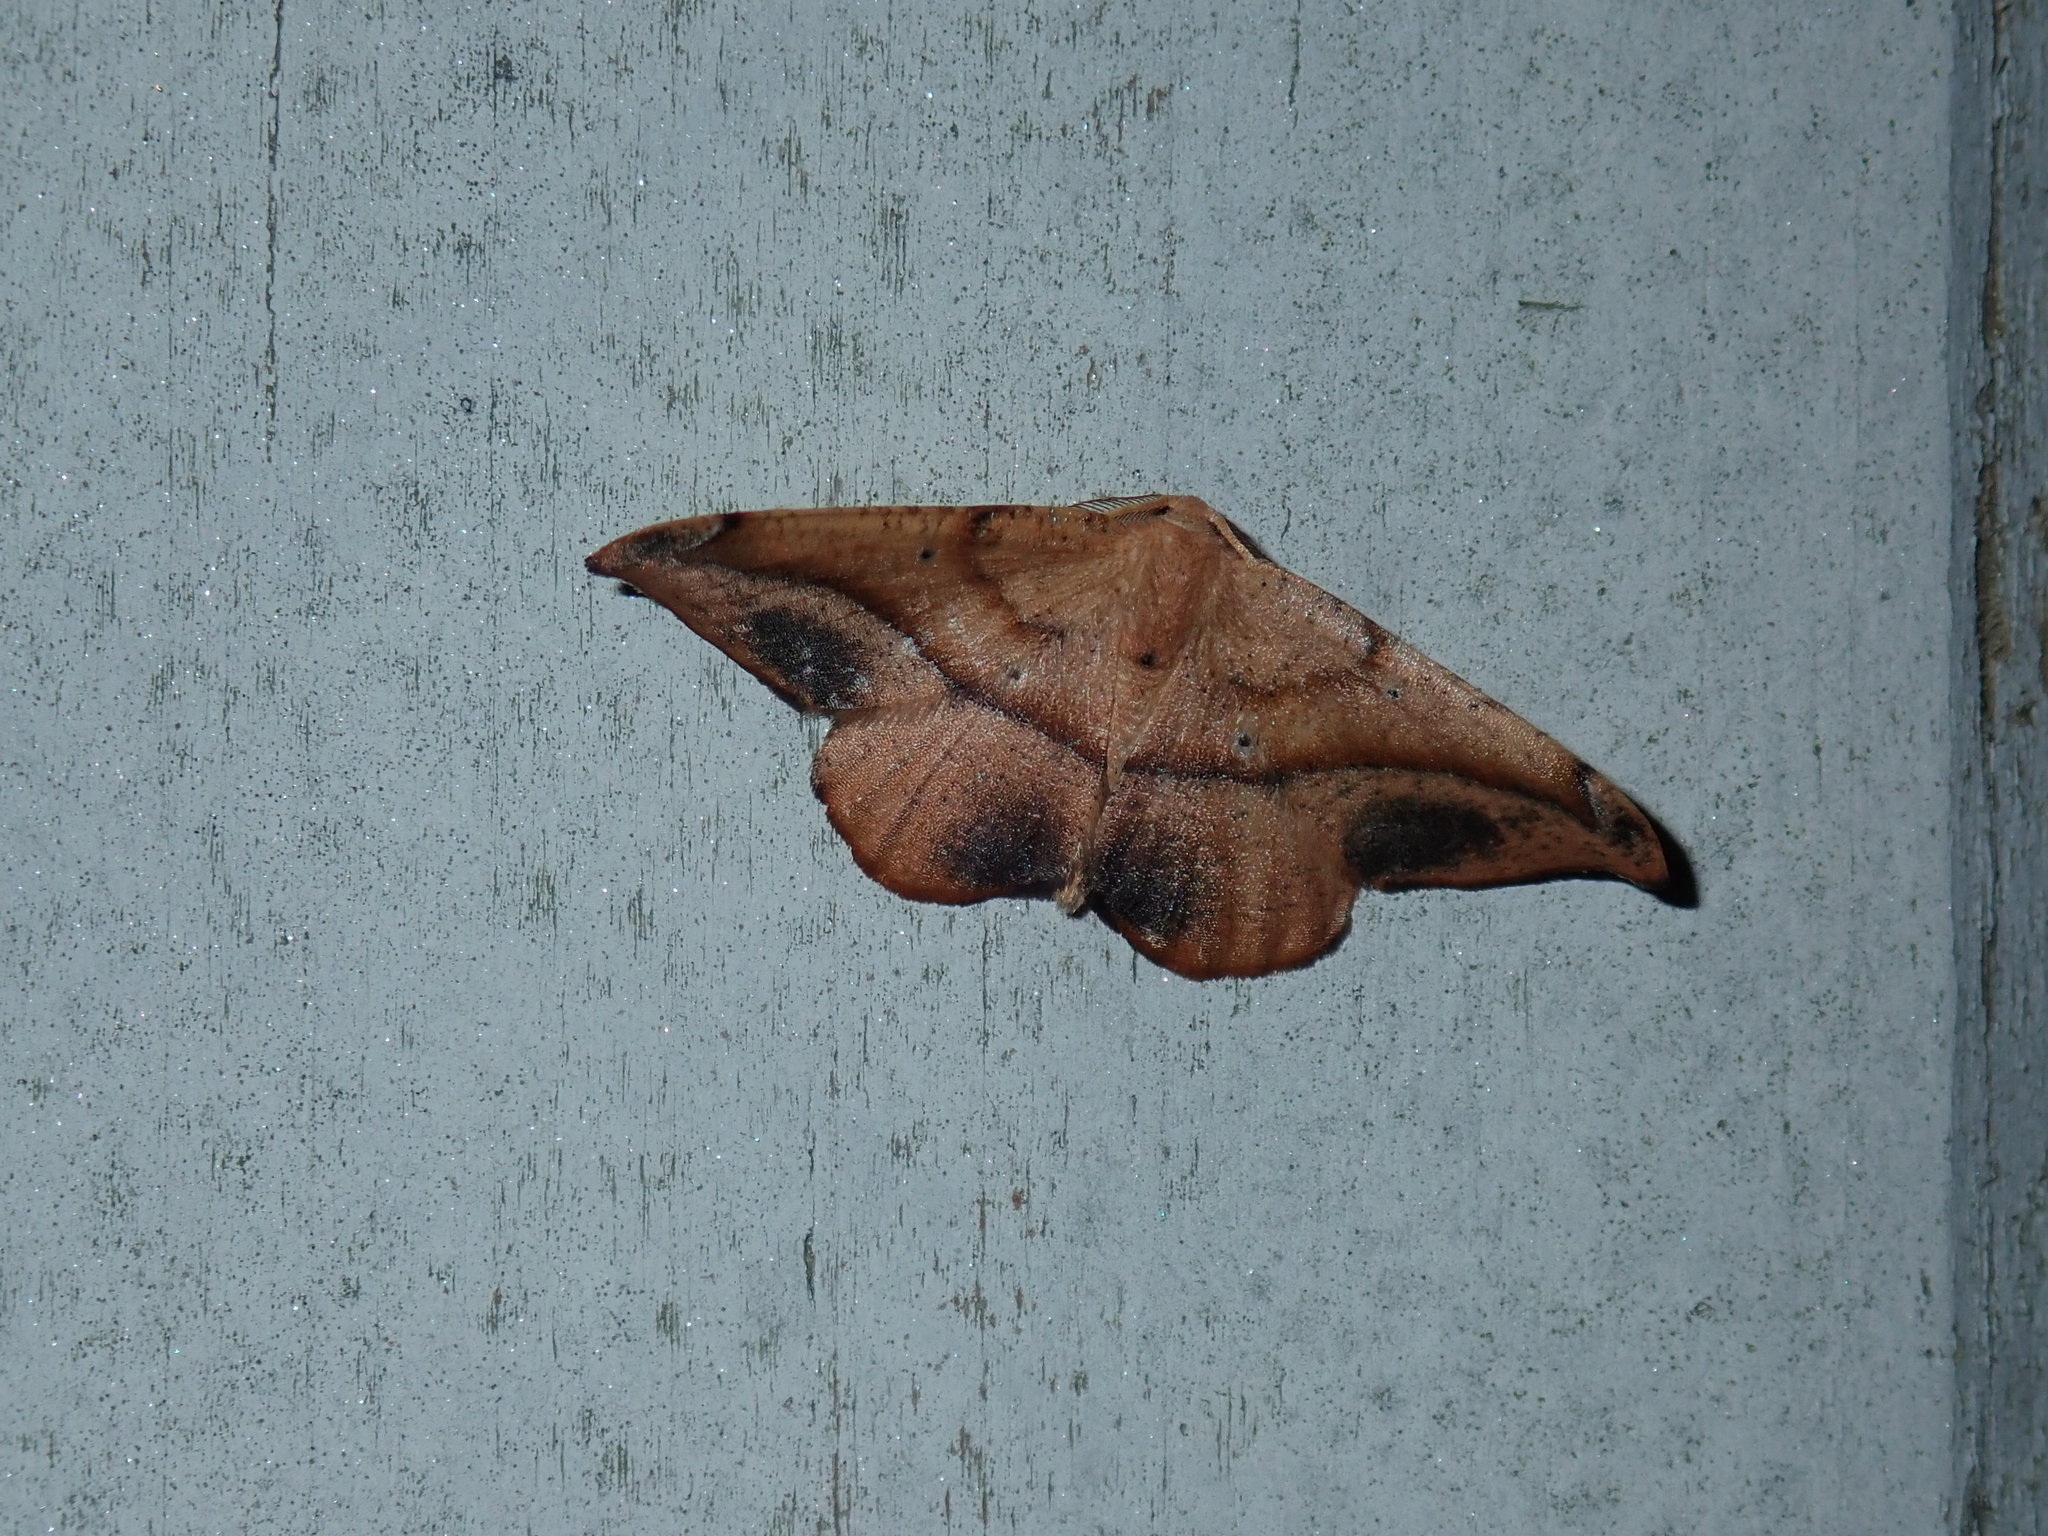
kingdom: Animalia
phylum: Arthropoda
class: Insecta
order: Lepidoptera
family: Geometridae
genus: Patalene
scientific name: Patalene olyzonaria
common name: Juniper geometer moth
